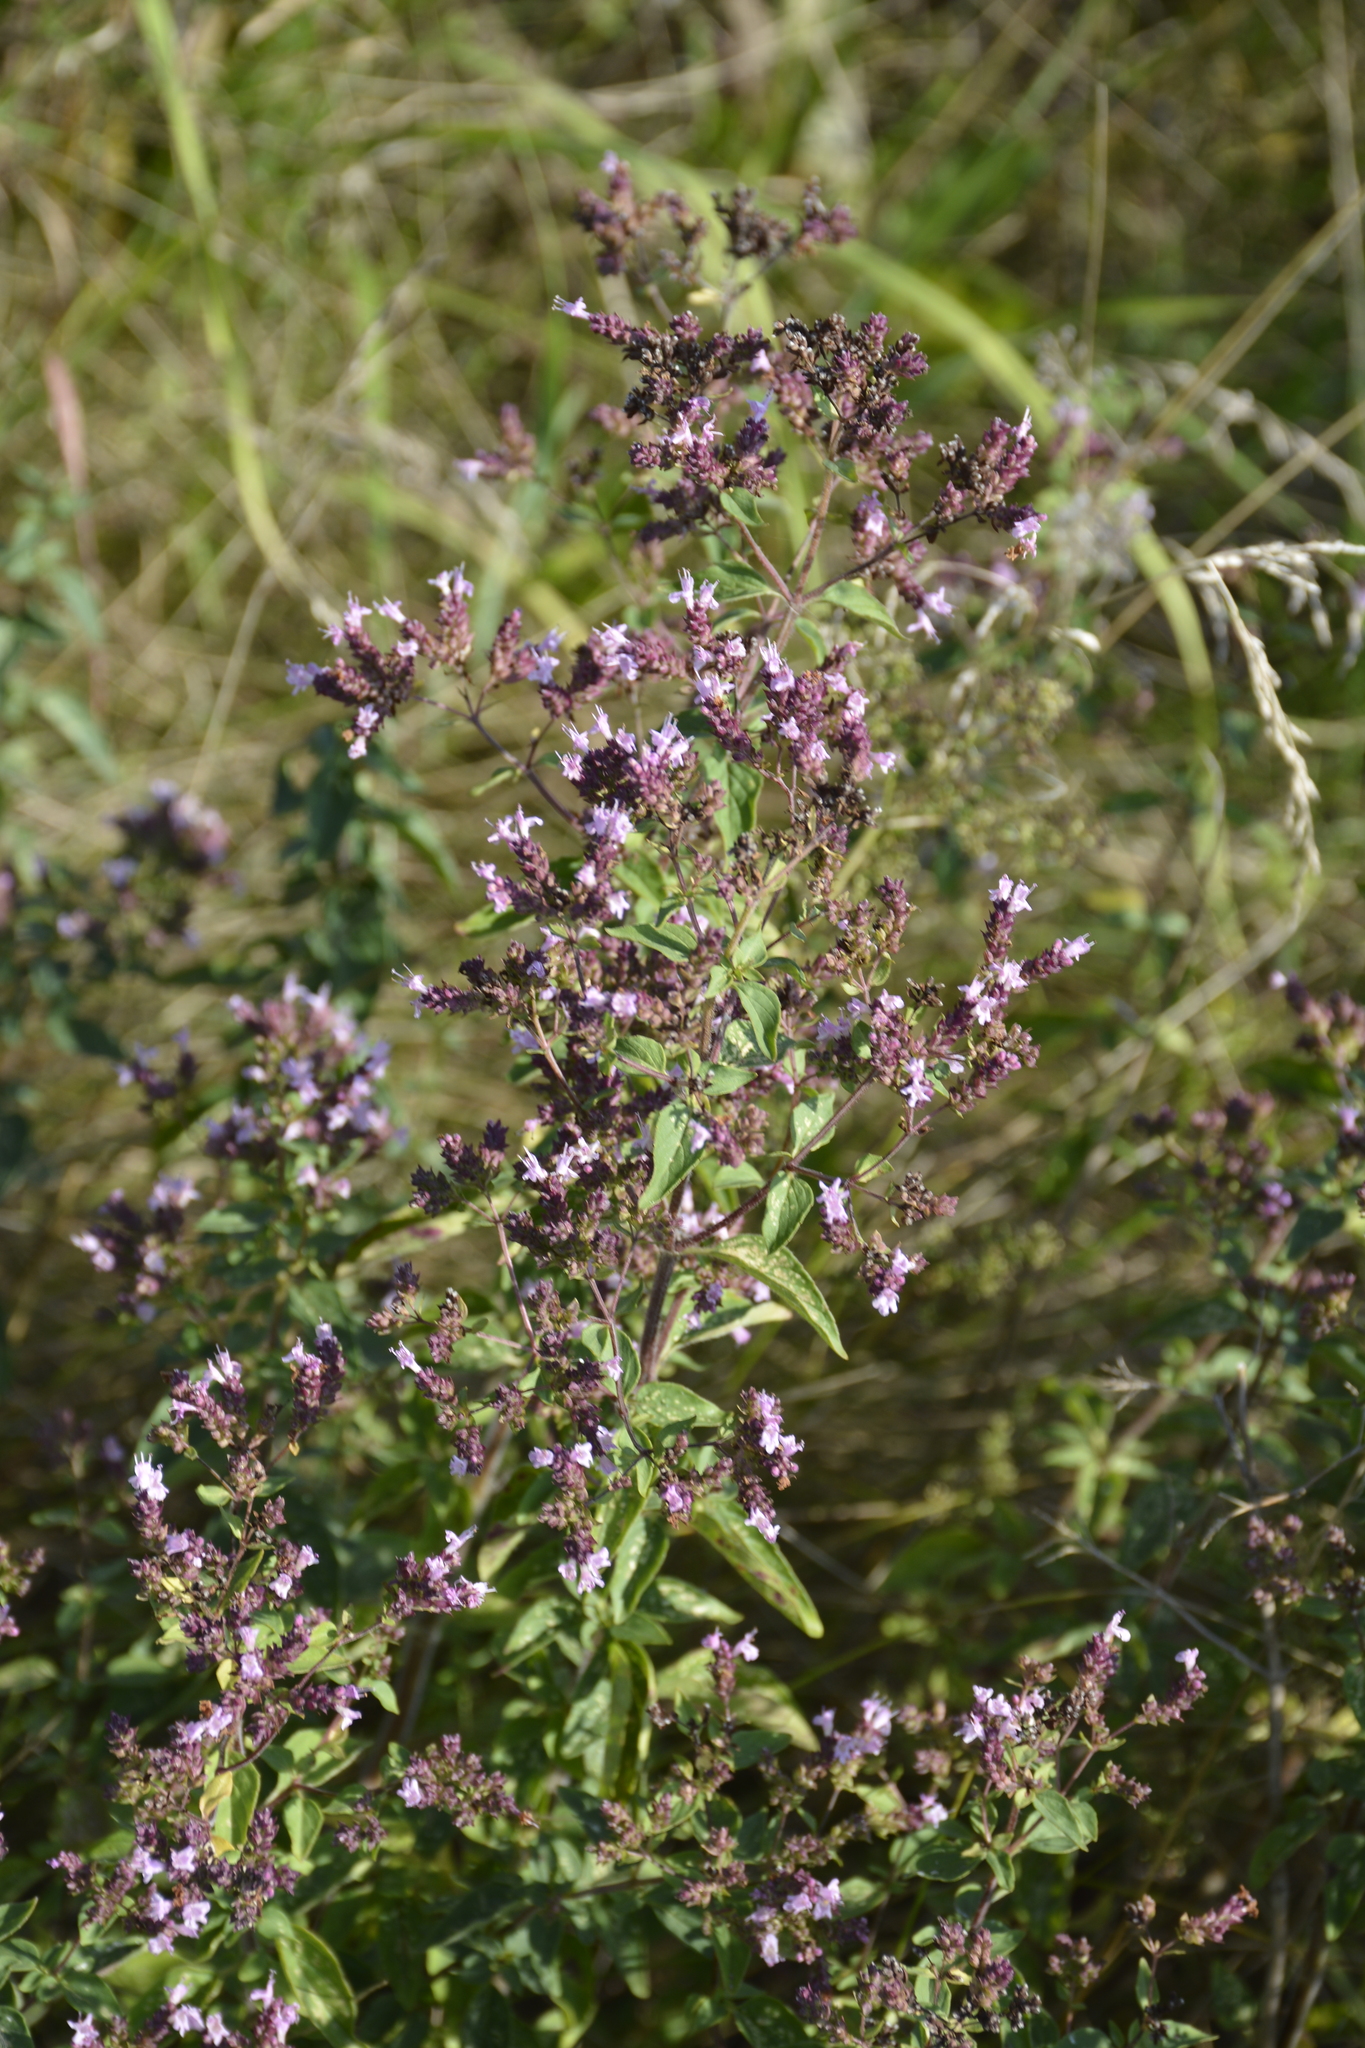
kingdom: Plantae
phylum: Tracheophyta
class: Magnoliopsida
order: Lamiales
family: Lamiaceae
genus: Origanum
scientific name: Origanum vulgare
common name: Wild marjoram
